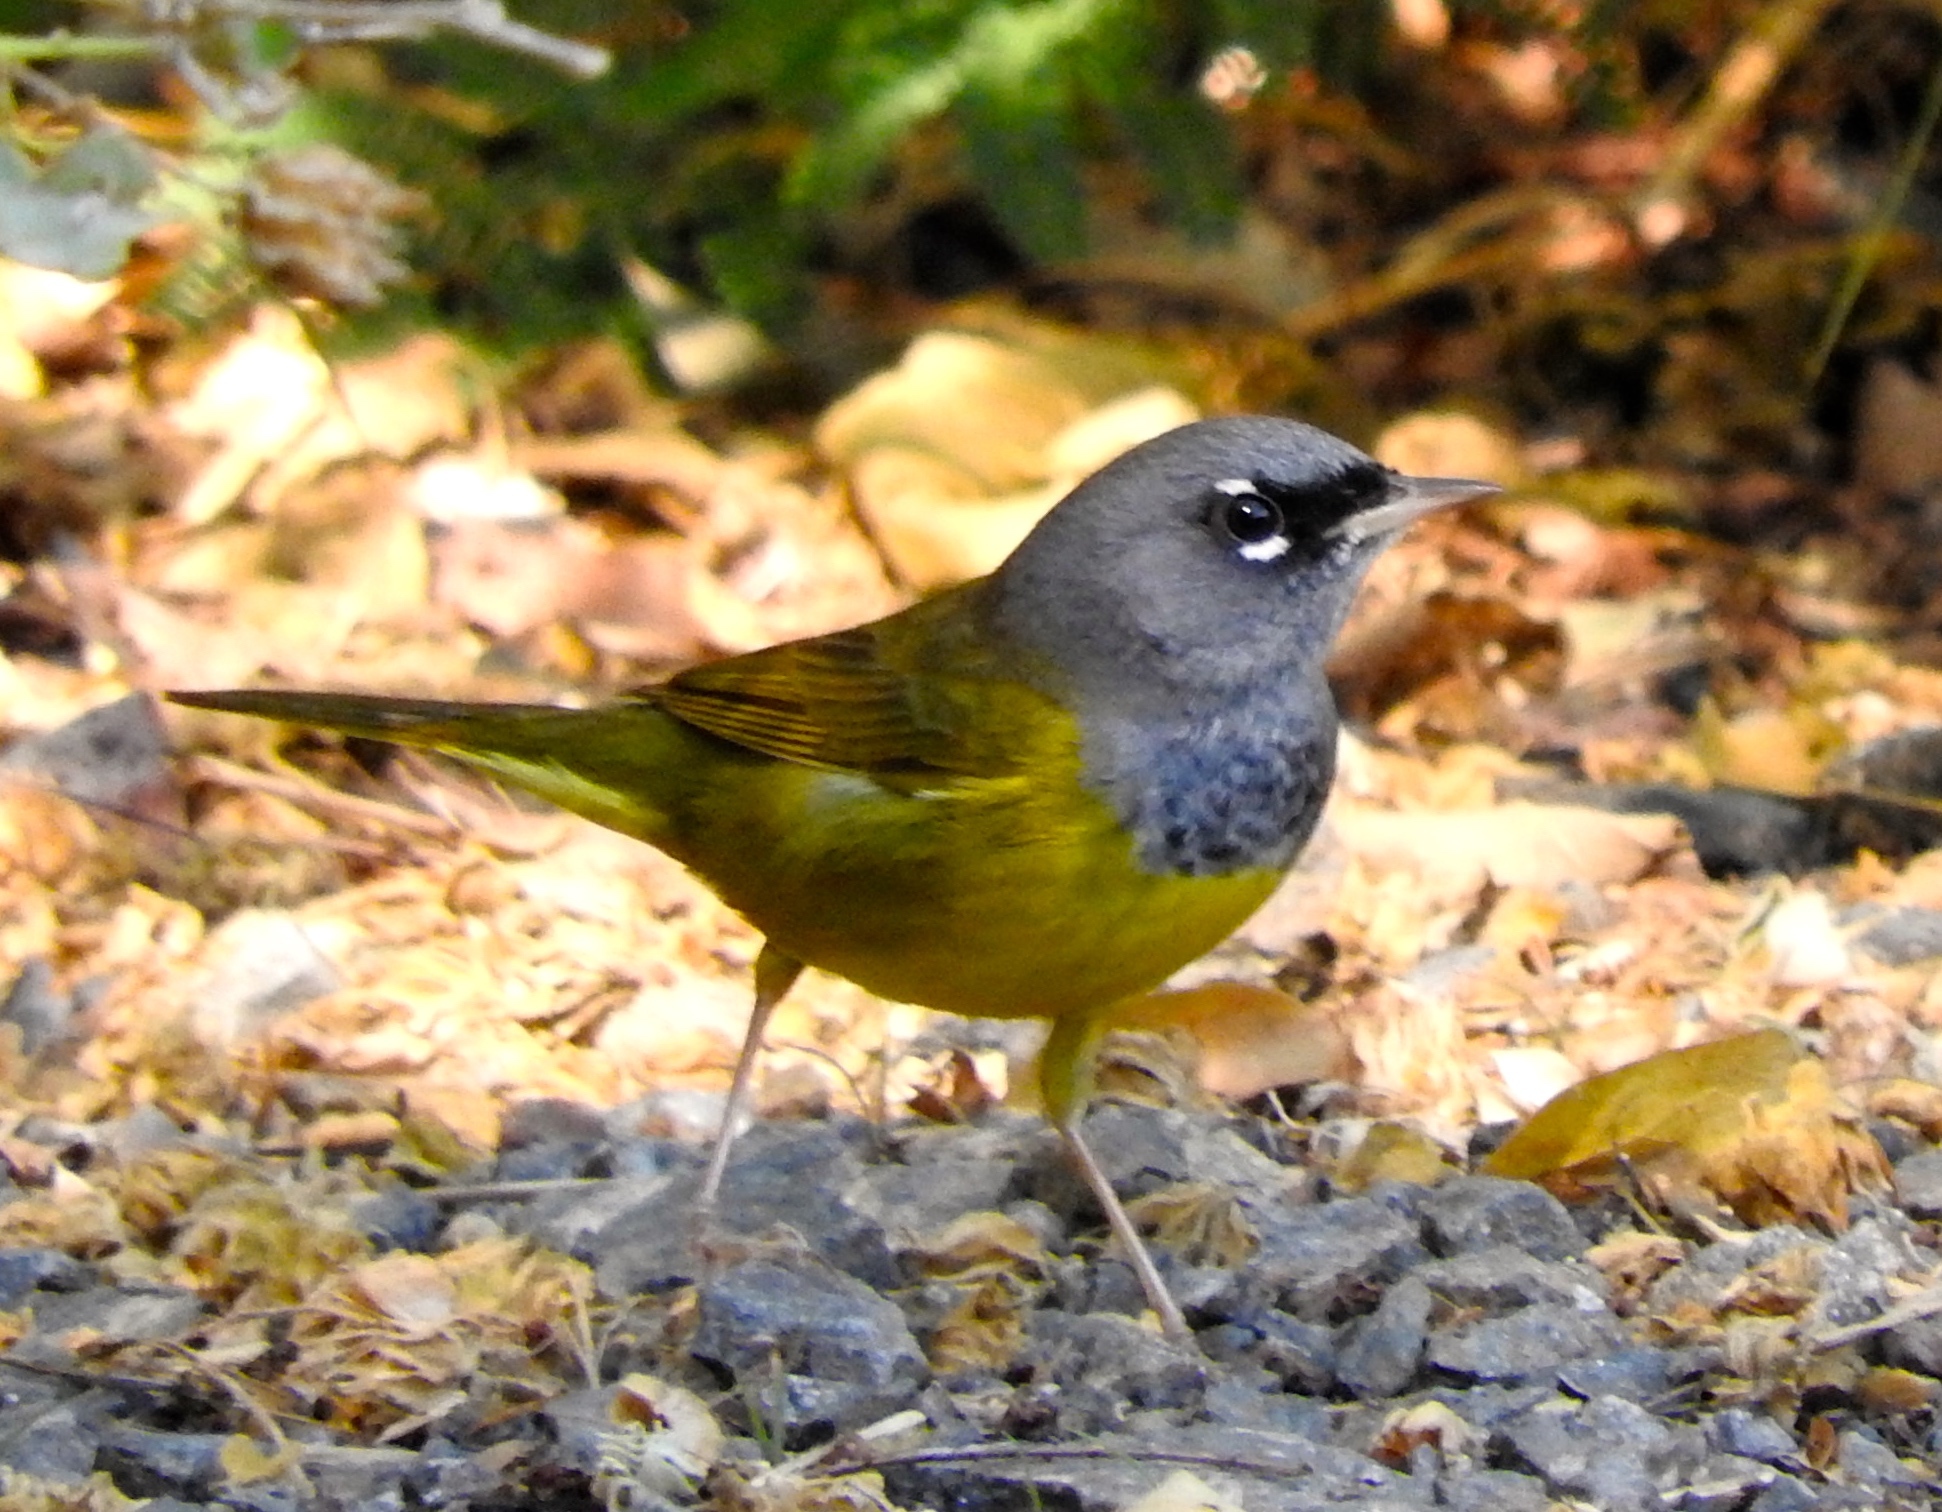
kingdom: Animalia
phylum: Chordata
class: Aves
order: Passeriformes
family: Parulidae
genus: Geothlypis
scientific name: Geothlypis tolmiei
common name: Macgillivray's warbler
